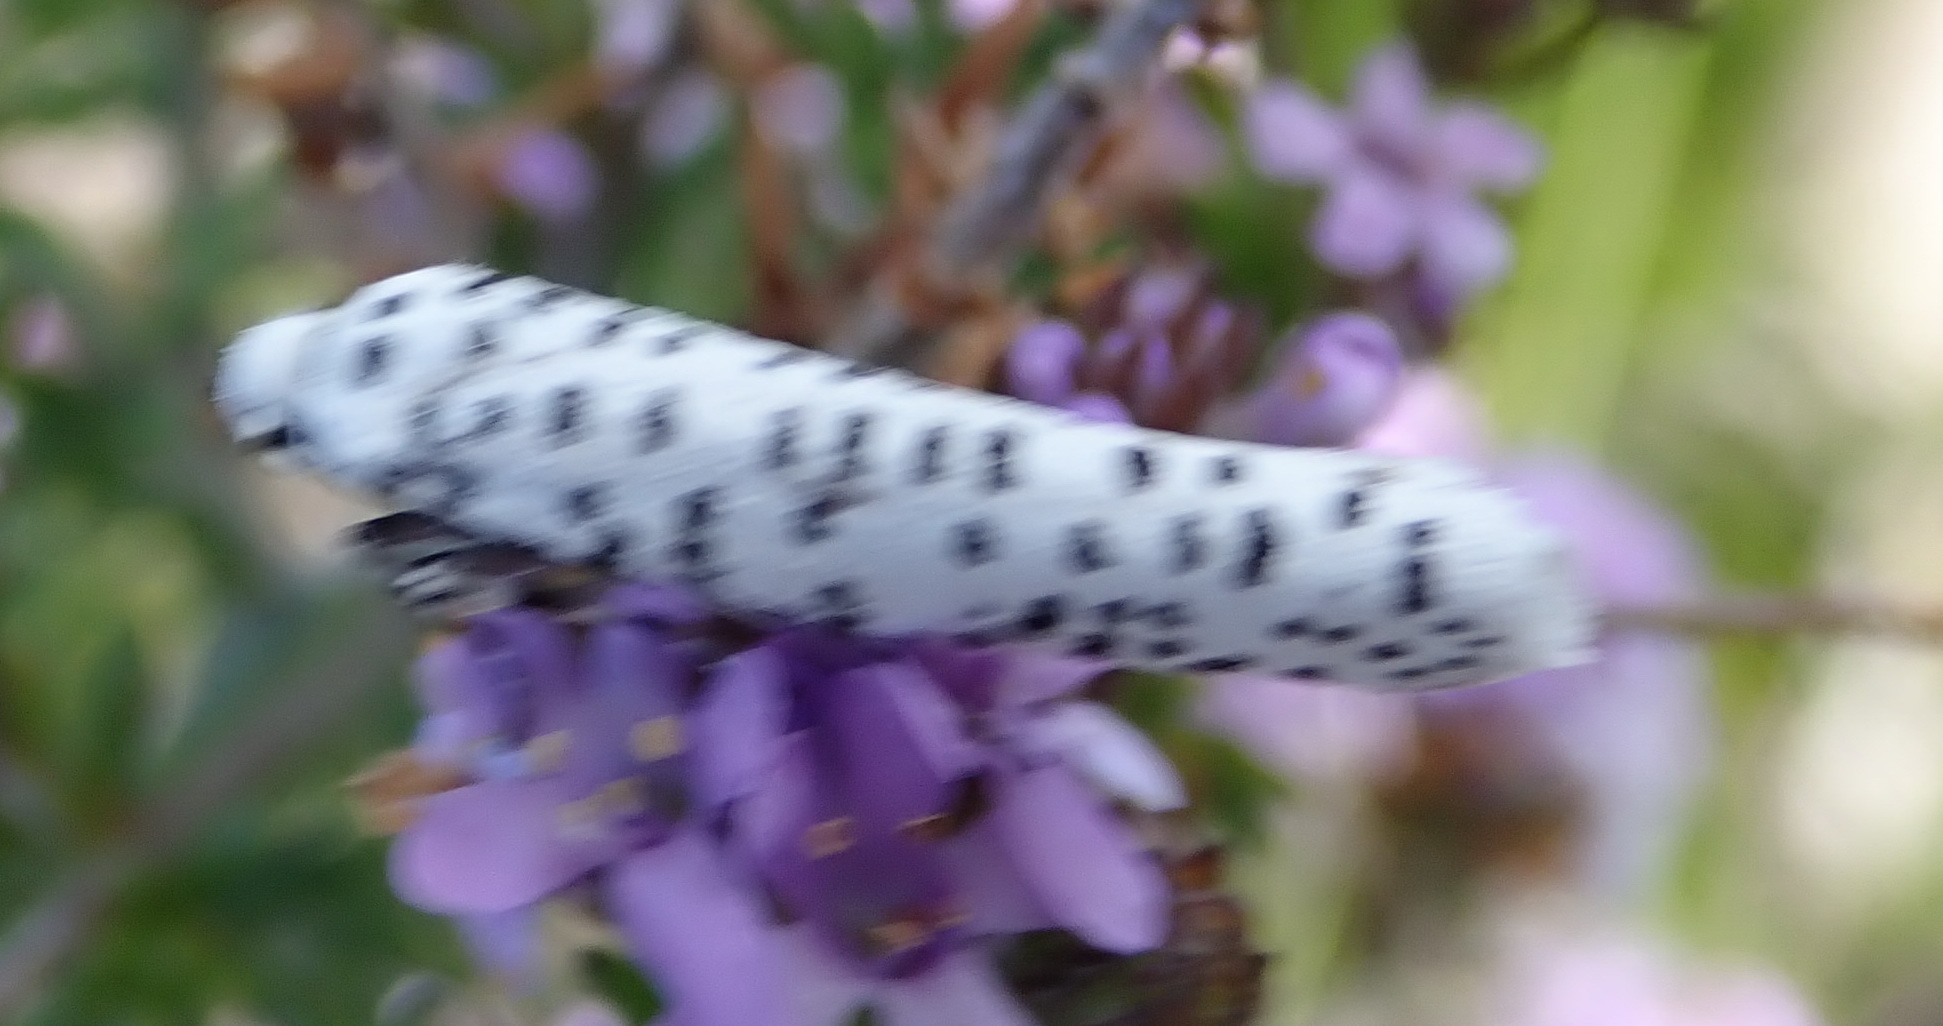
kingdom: Animalia
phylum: Arthropoda
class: Insecta
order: Lepidoptera
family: Yponomeutidae
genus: Yponomeuta
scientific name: Yponomeuta strigillata
